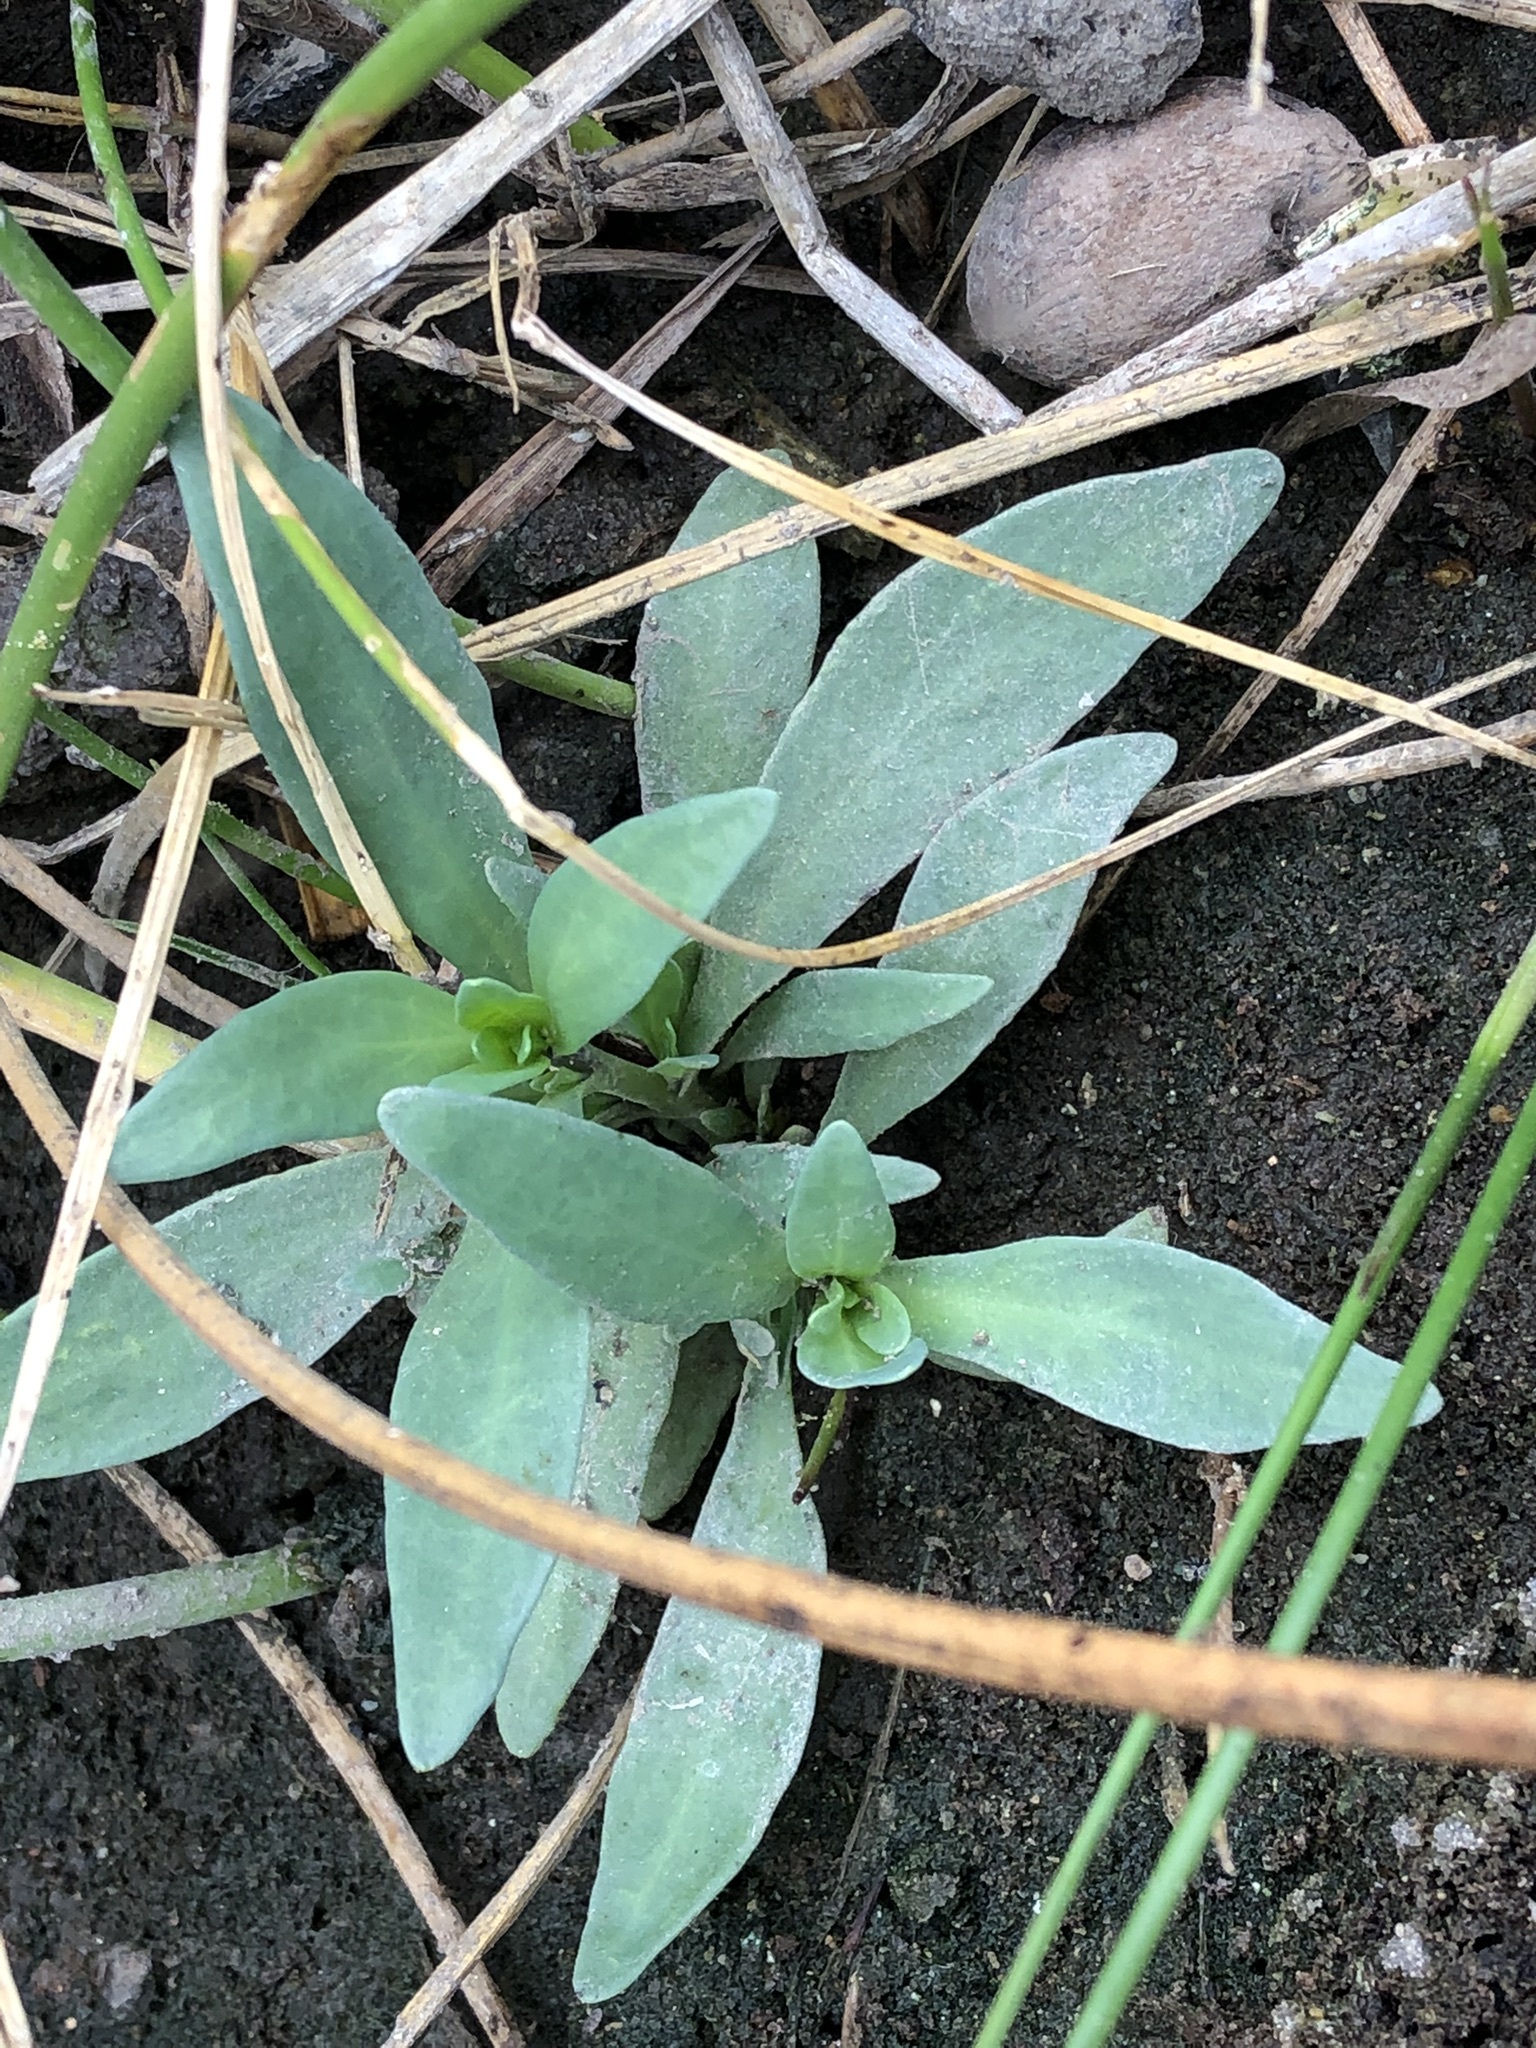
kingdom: Plantae
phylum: Tracheophyta
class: Magnoliopsida
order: Boraginales
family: Heliotropiaceae
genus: Heliotropium
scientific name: Heliotropium curassavicum
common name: Seaside heliotrope
